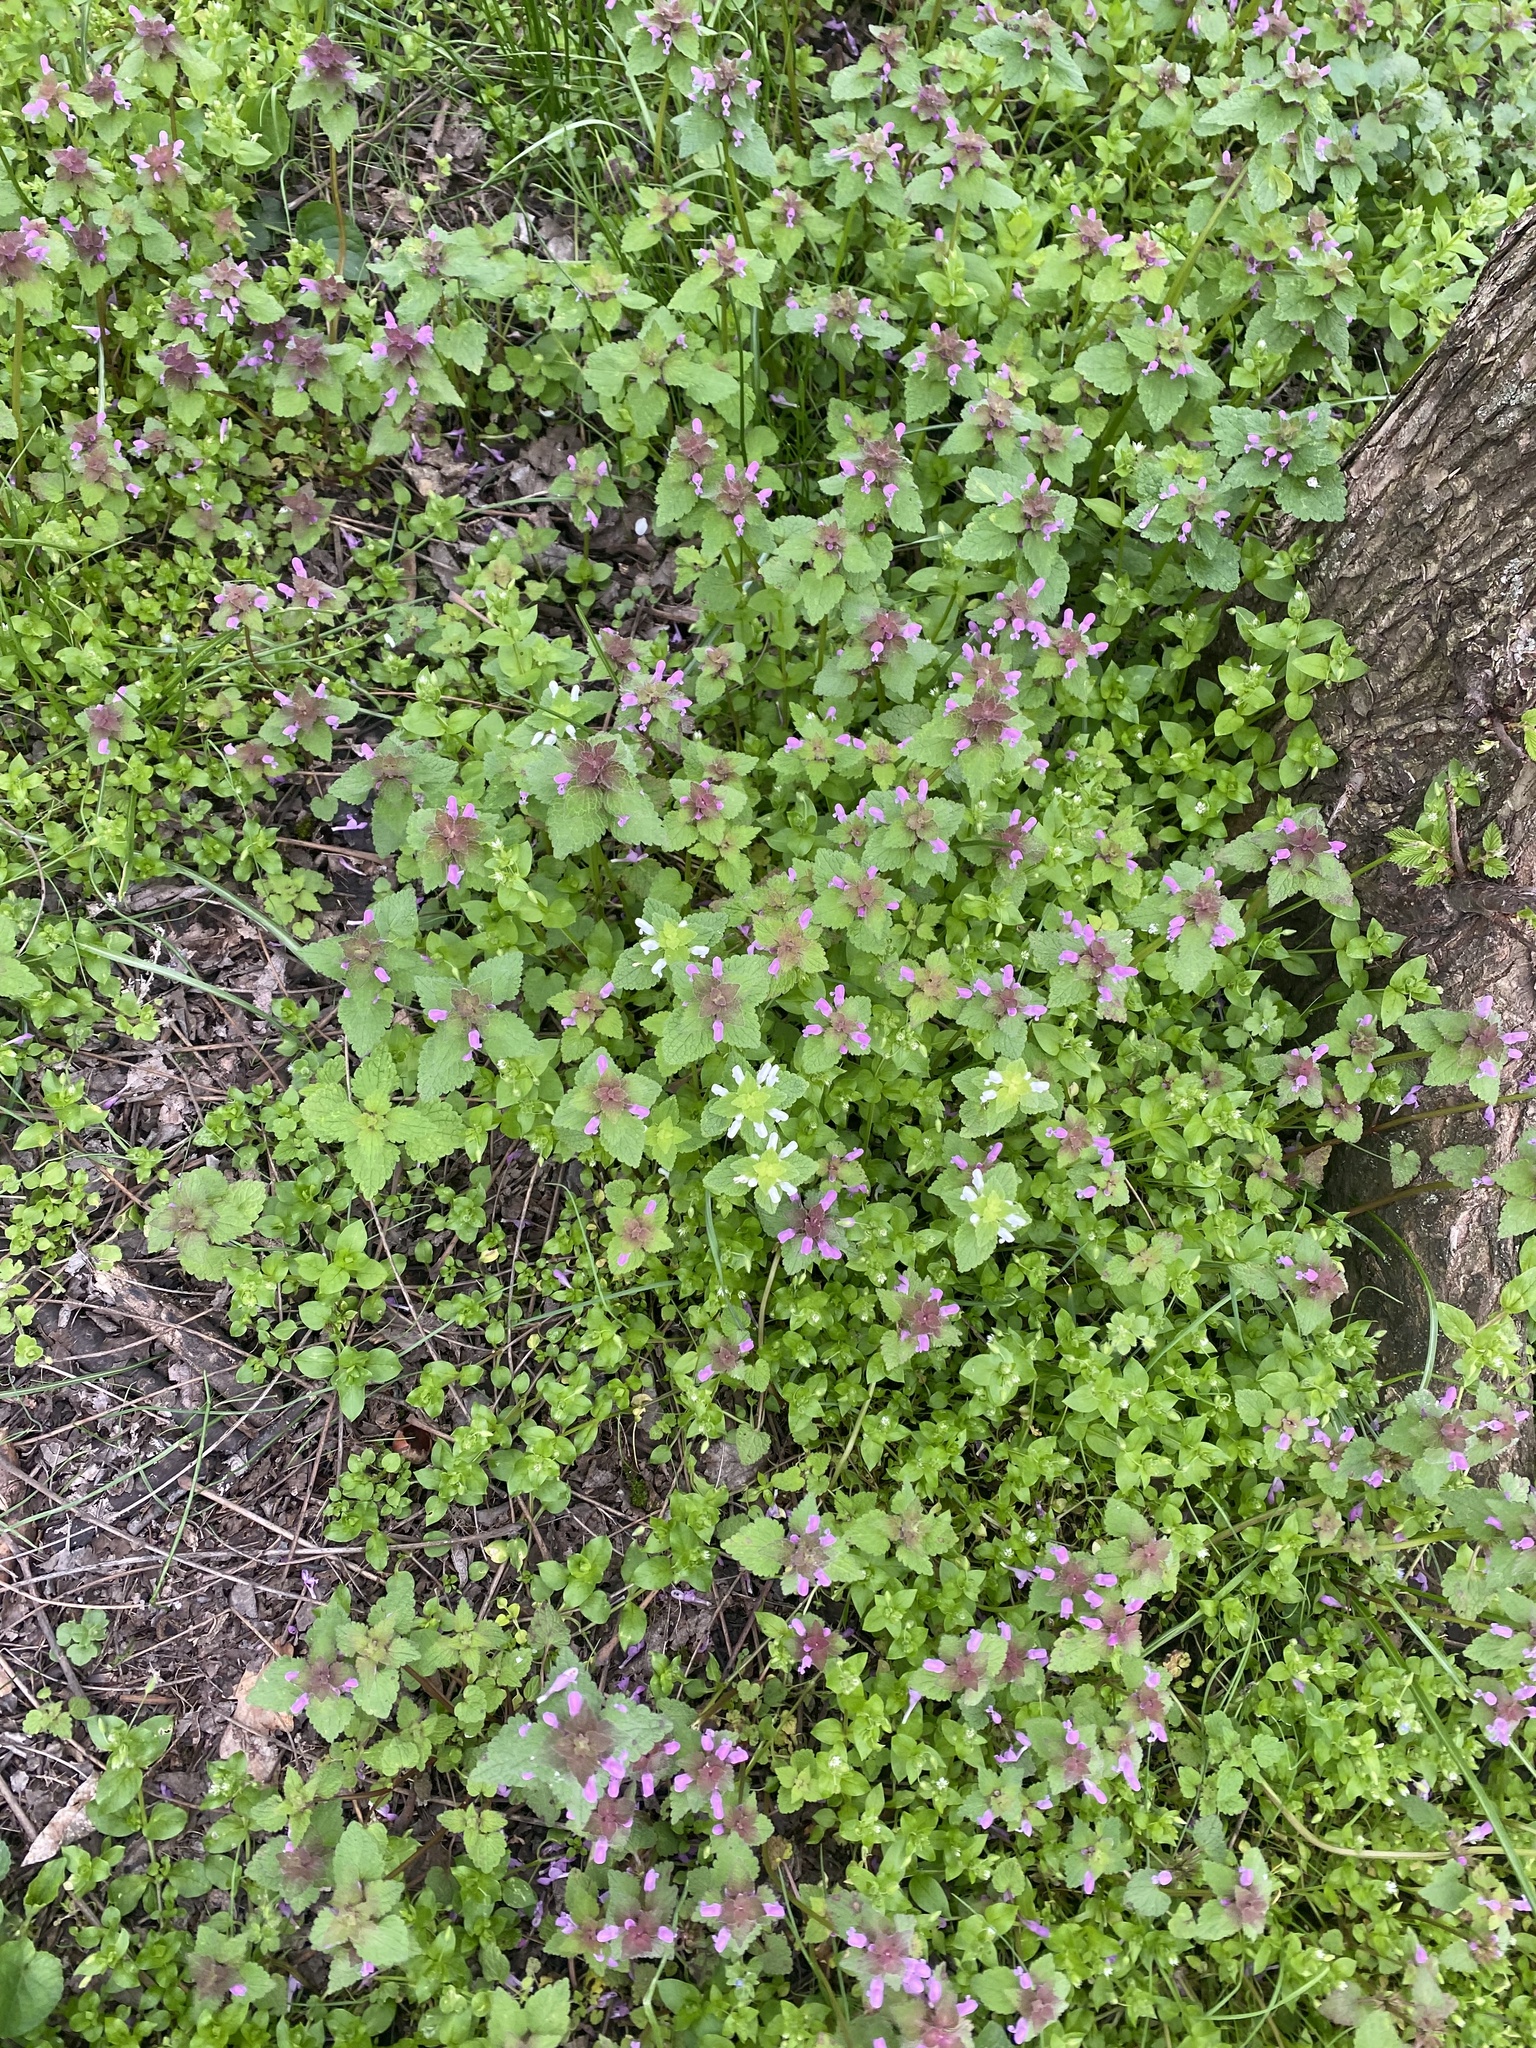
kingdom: Plantae
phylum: Tracheophyta
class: Magnoliopsida
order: Lamiales
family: Lamiaceae
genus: Lamium
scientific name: Lamium purpureum
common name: Red dead-nettle
